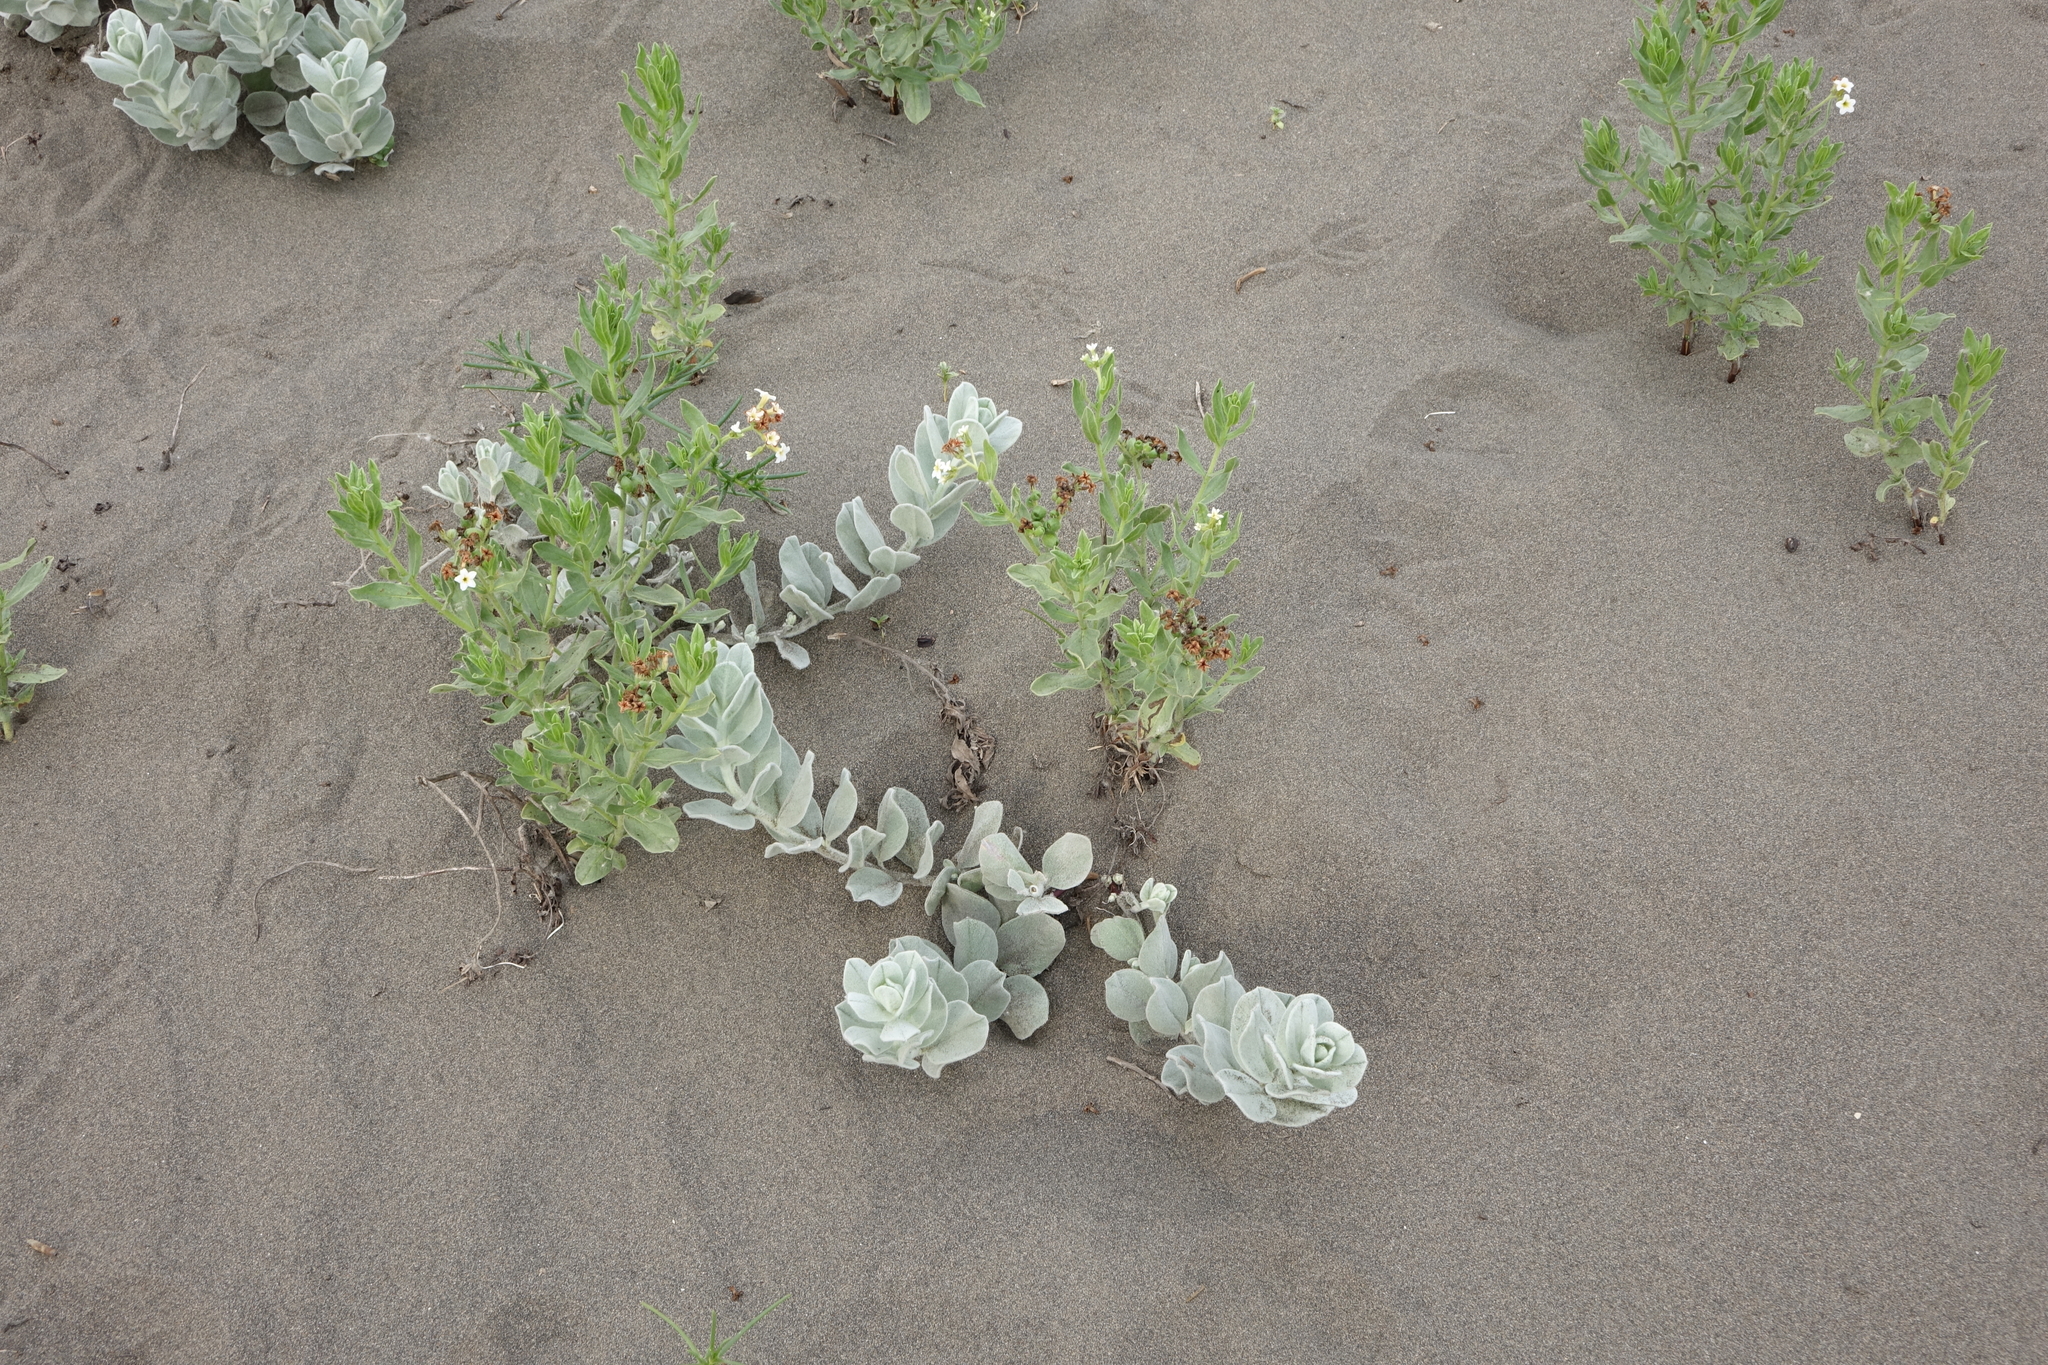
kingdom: Plantae
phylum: Tracheophyta
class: Magnoliopsida
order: Solanales
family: Convolvulaceae
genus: Convolvulus
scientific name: Convolvulus persicus
